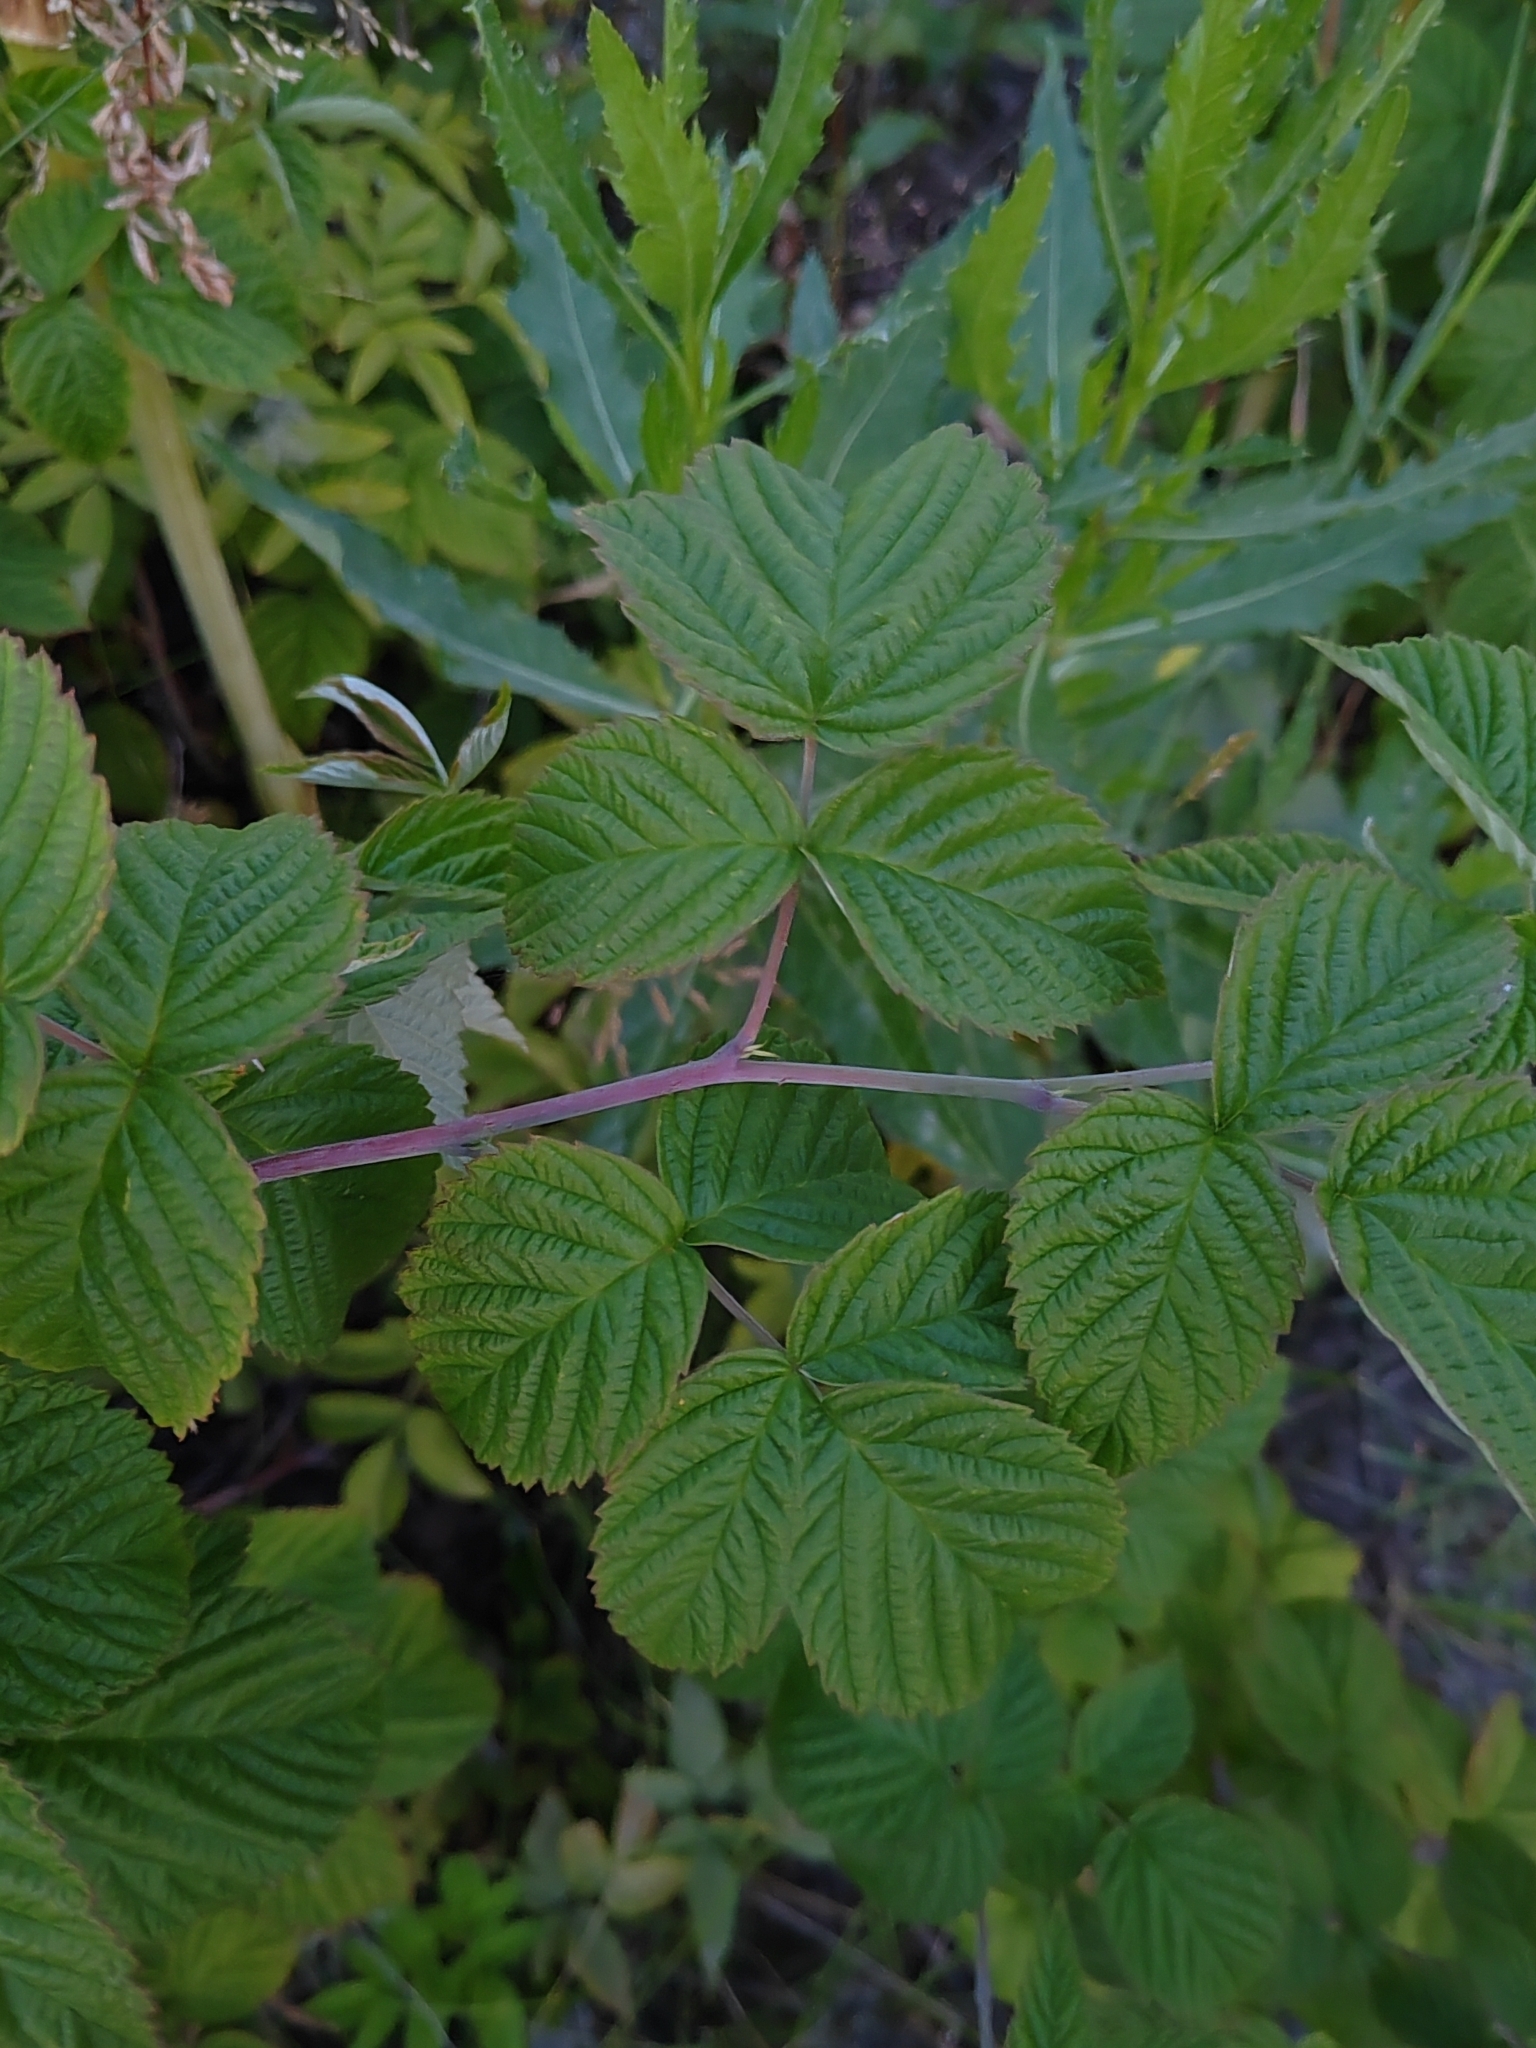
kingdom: Plantae
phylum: Tracheophyta
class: Magnoliopsida
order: Rosales
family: Rosaceae
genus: Rubus
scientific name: Rubus idaeus
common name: Raspberry
